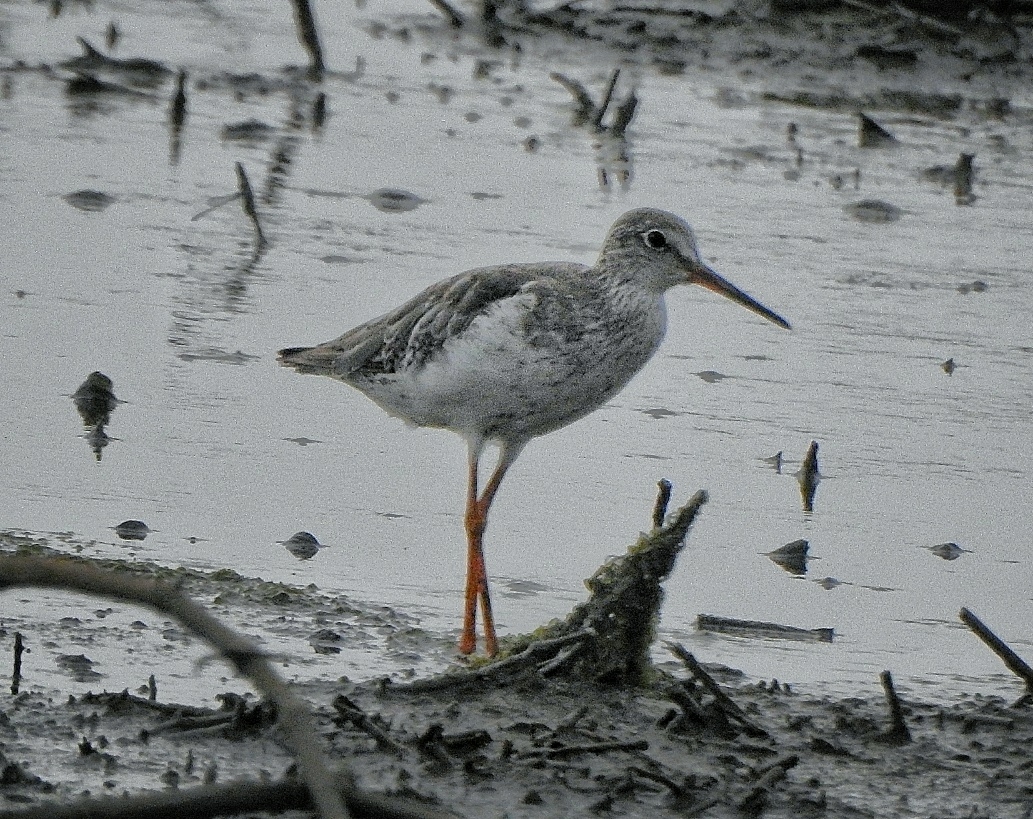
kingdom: Animalia
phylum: Chordata
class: Aves
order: Charadriiformes
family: Scolopacidae
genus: Tringa
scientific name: Tringa totanus
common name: Common redshank
